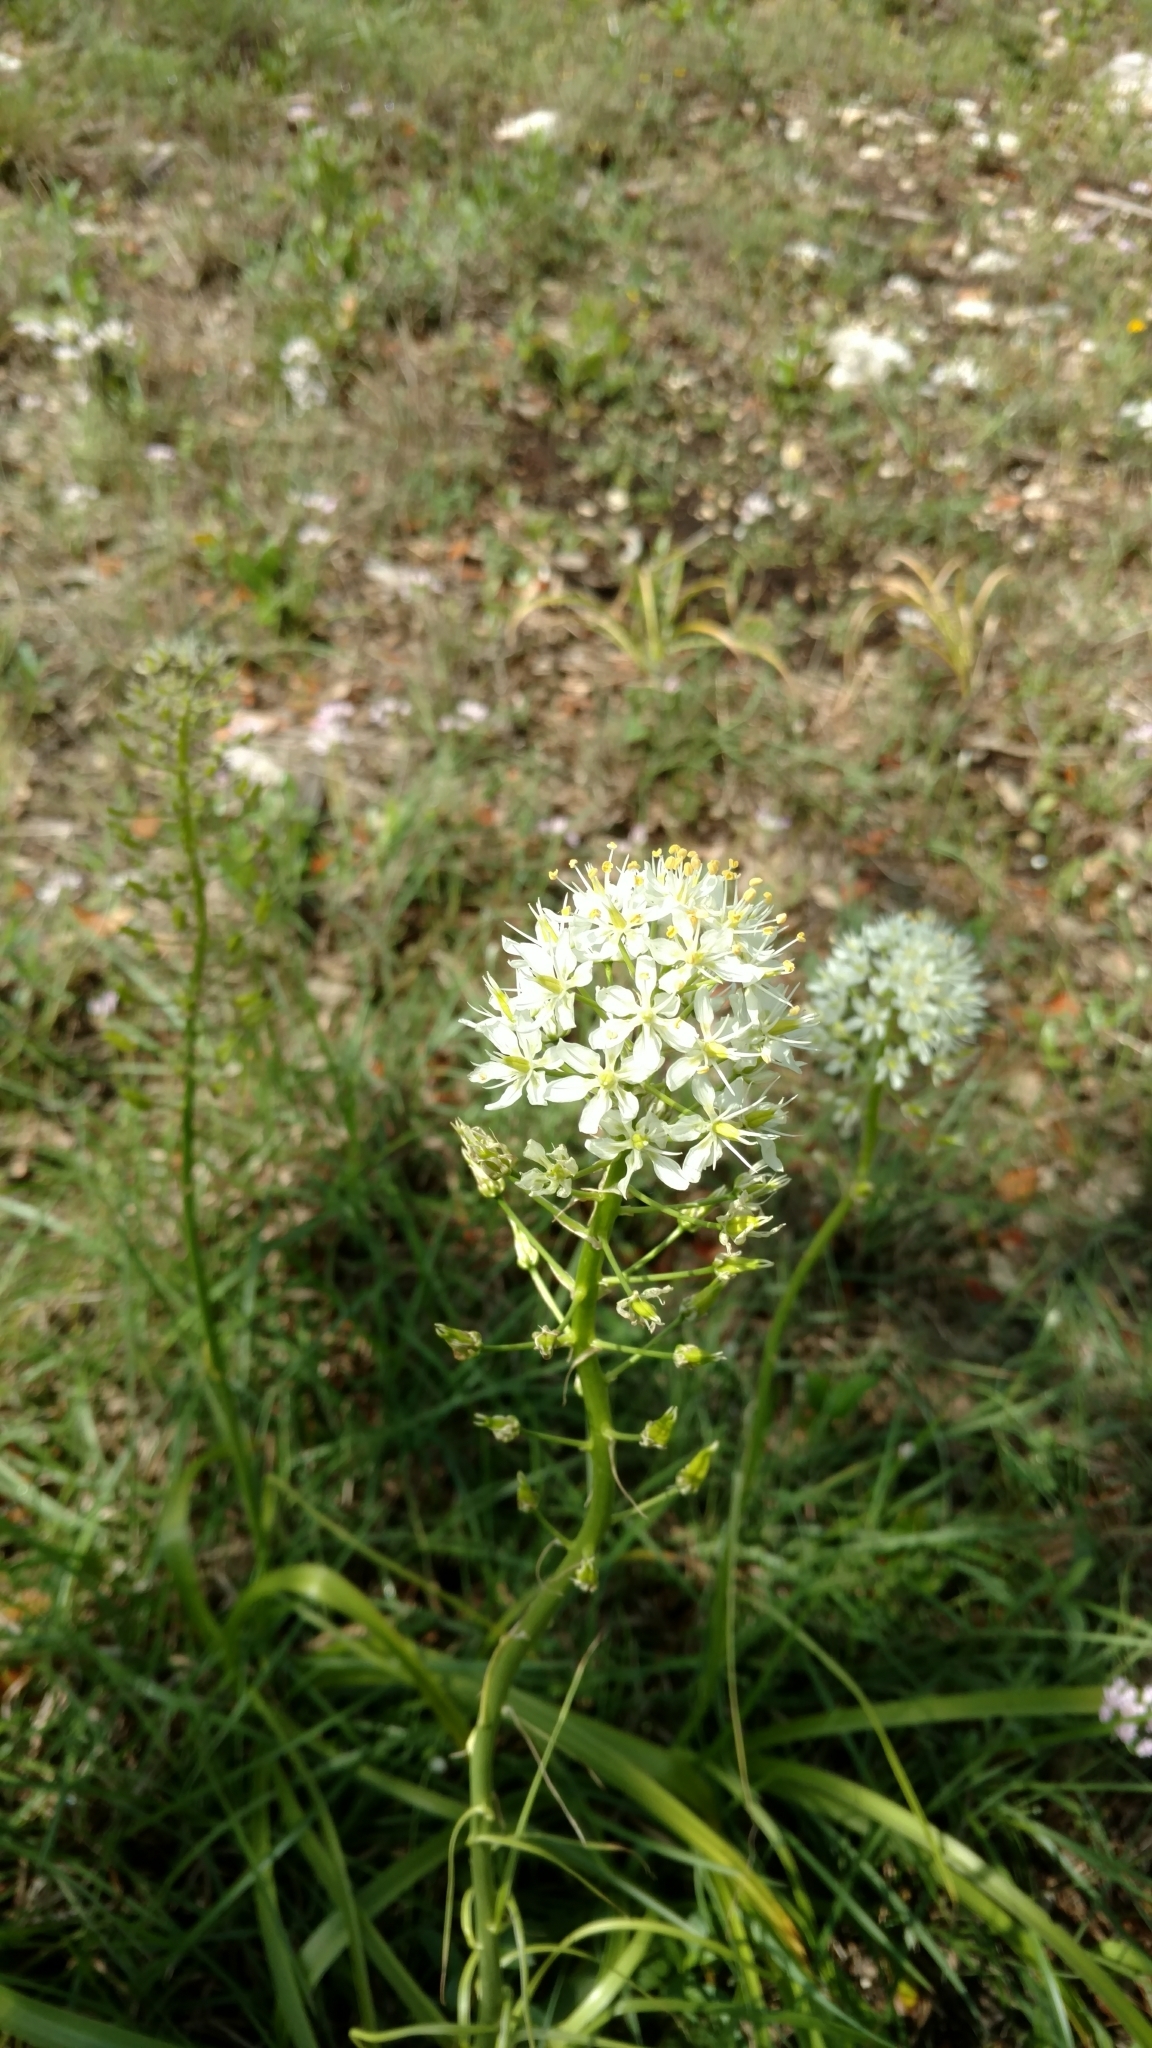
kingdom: Plantae
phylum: Tracheophyta
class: Liliopsida
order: Liliales
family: Melanthiaceae
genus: Toxicoscordion
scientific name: Toxicoscordion nuttallii
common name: Poison sego
